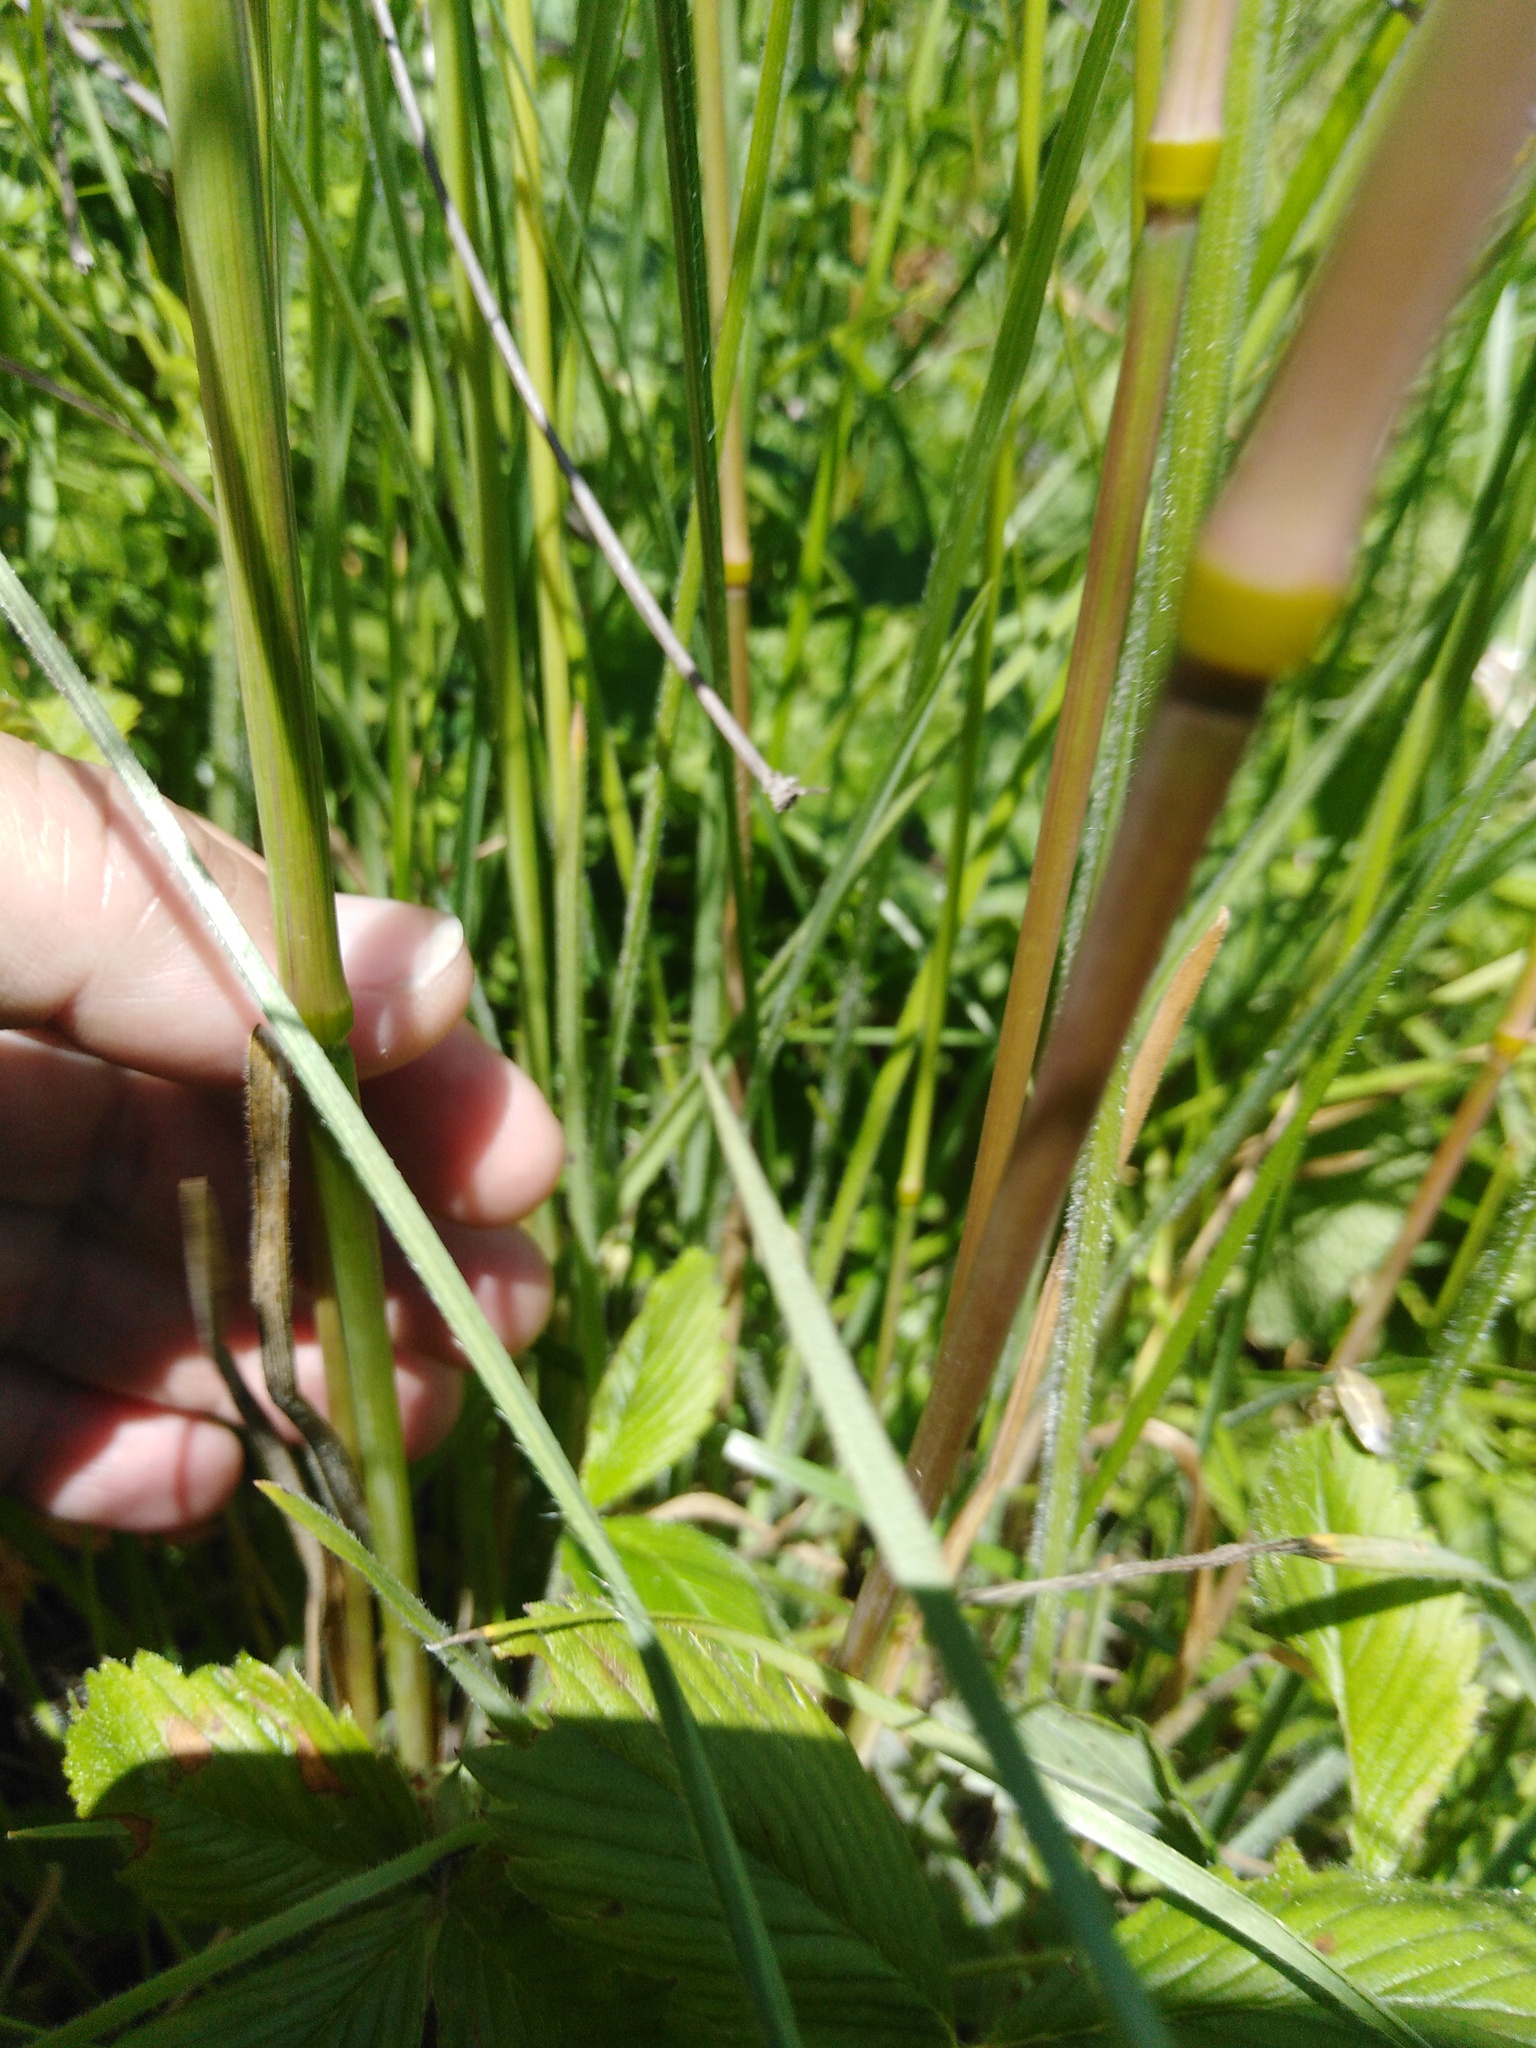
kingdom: Plantae
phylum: Tracheophyta
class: Liliopsida
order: Poales
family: Poaceae
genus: Avenula
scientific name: Avenula pubescens
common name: Downy alpine oatgrass
